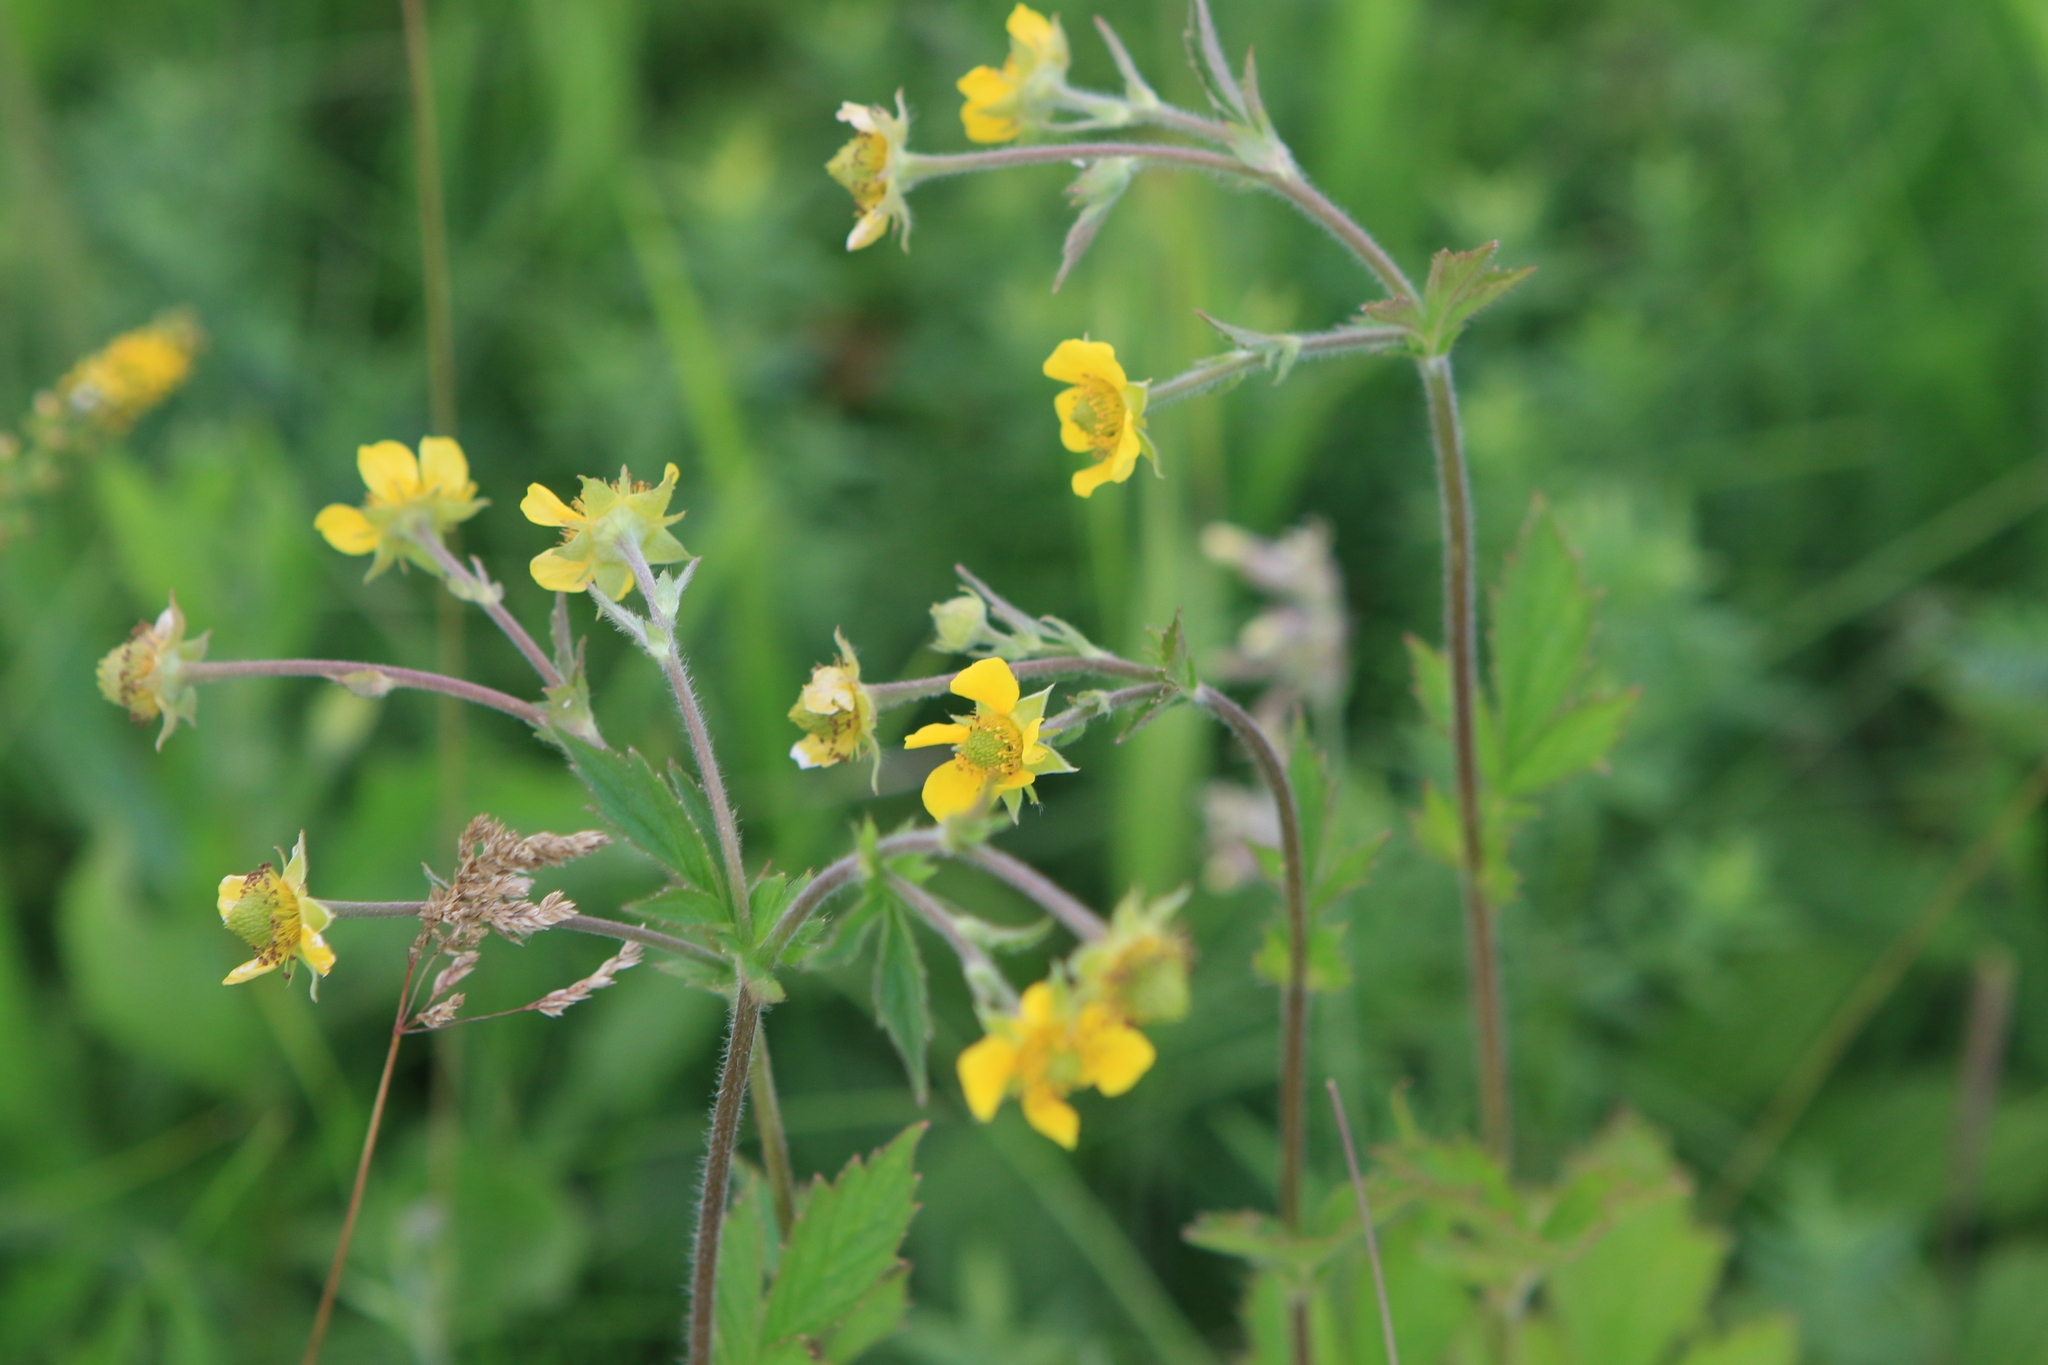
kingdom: Plantae
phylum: Tracheophyta
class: Magnoliopsida
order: Rosales
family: Rosaceae
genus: Geum
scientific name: Geum aleppicum
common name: Yellow avens
